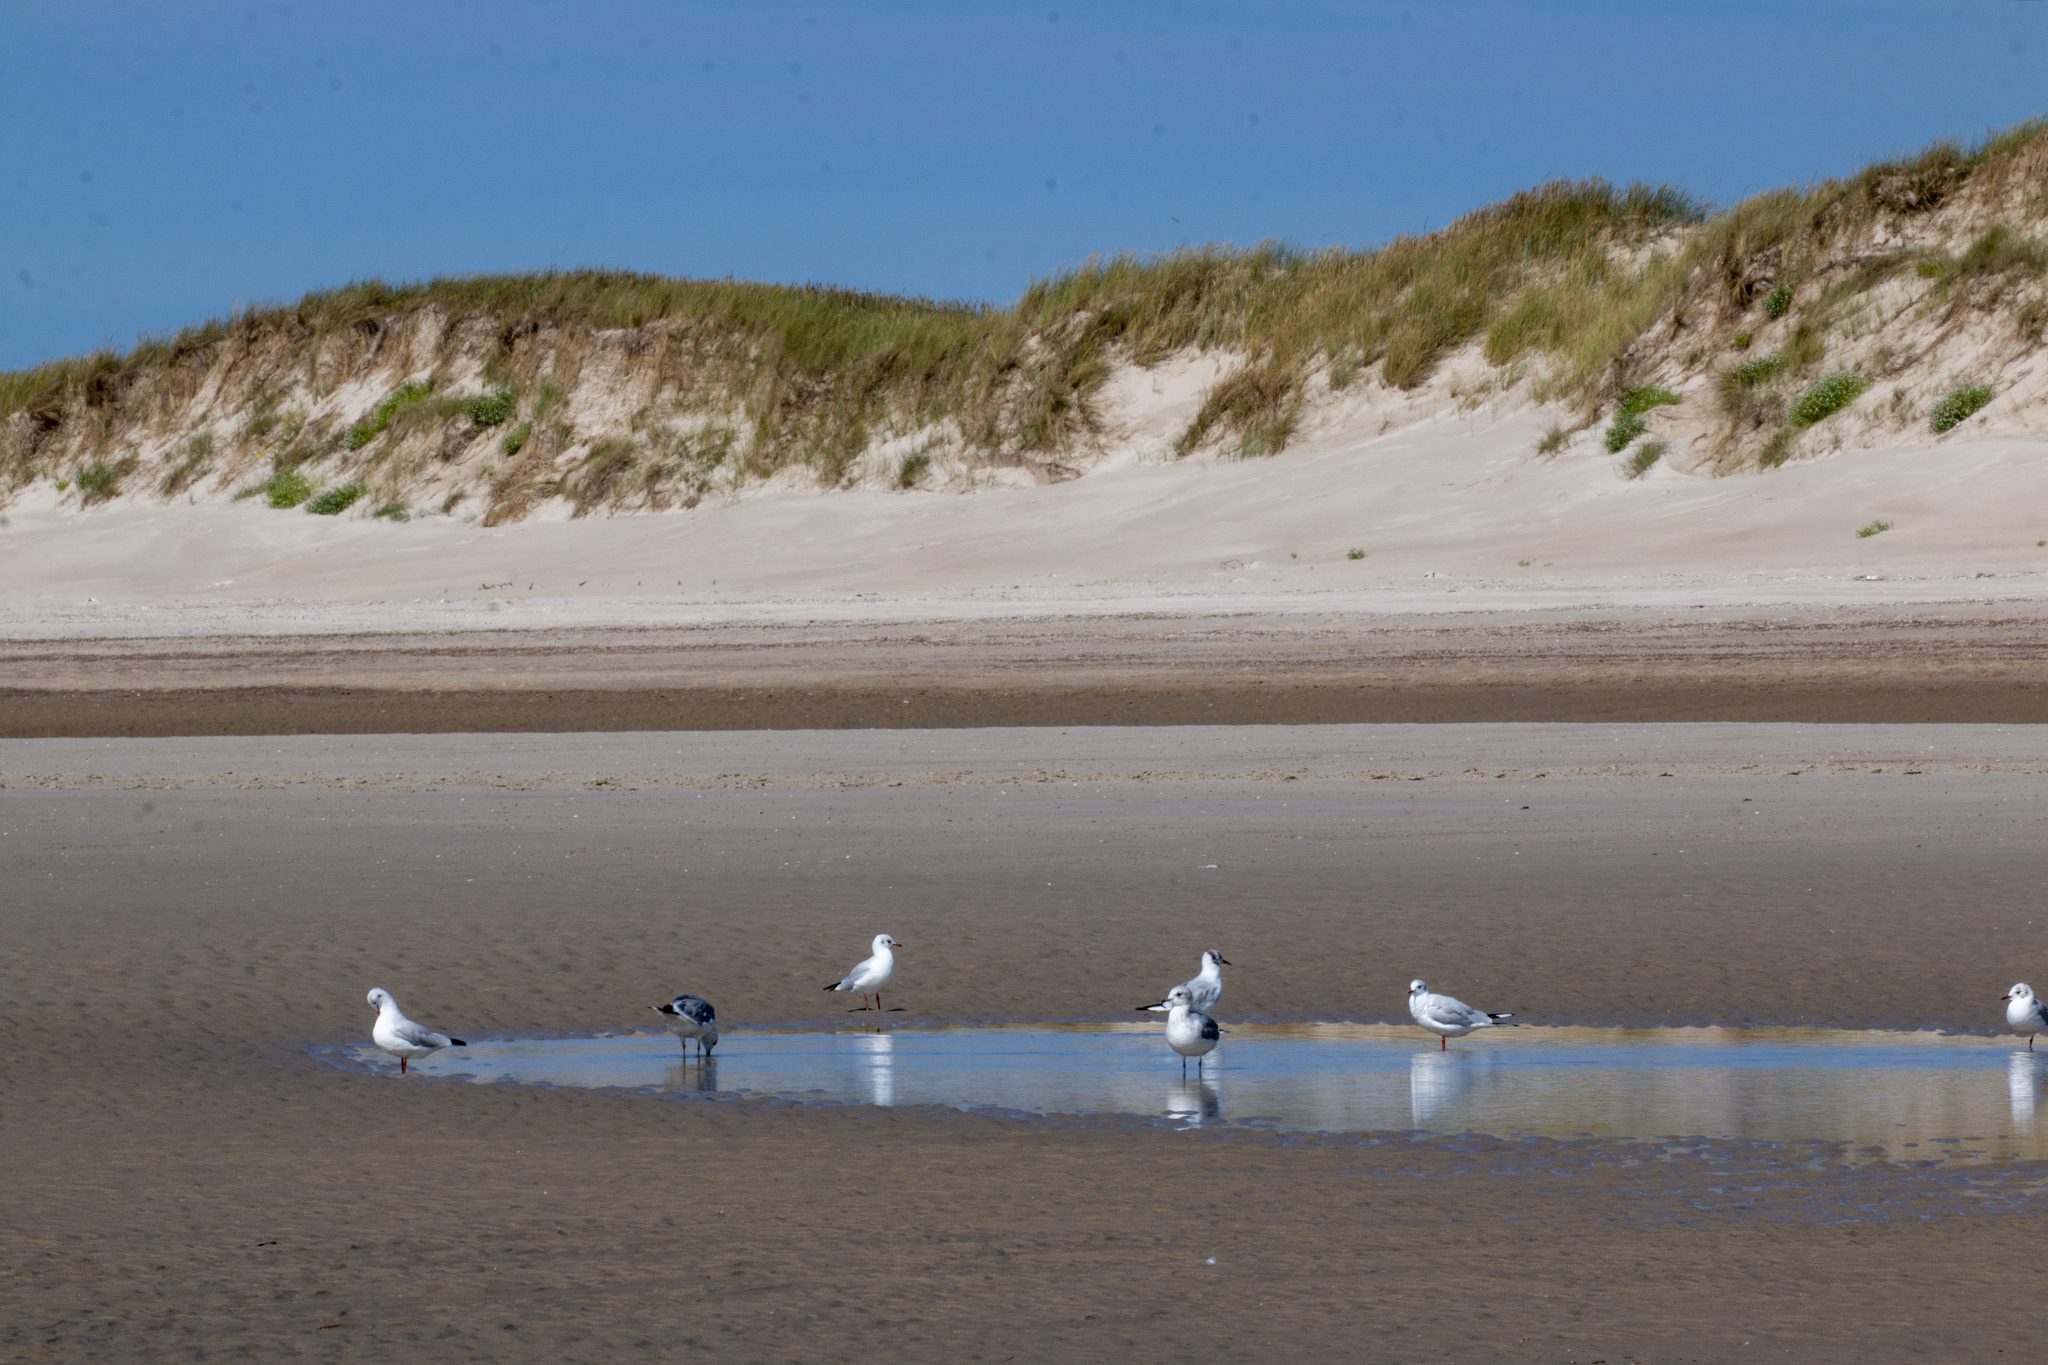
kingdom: Animalia
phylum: Chordata
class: Aves
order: Charadriiformes
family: Laridae
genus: Chroicocephalus
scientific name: Chroicocephalus ridibundus
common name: Black-headed gull
